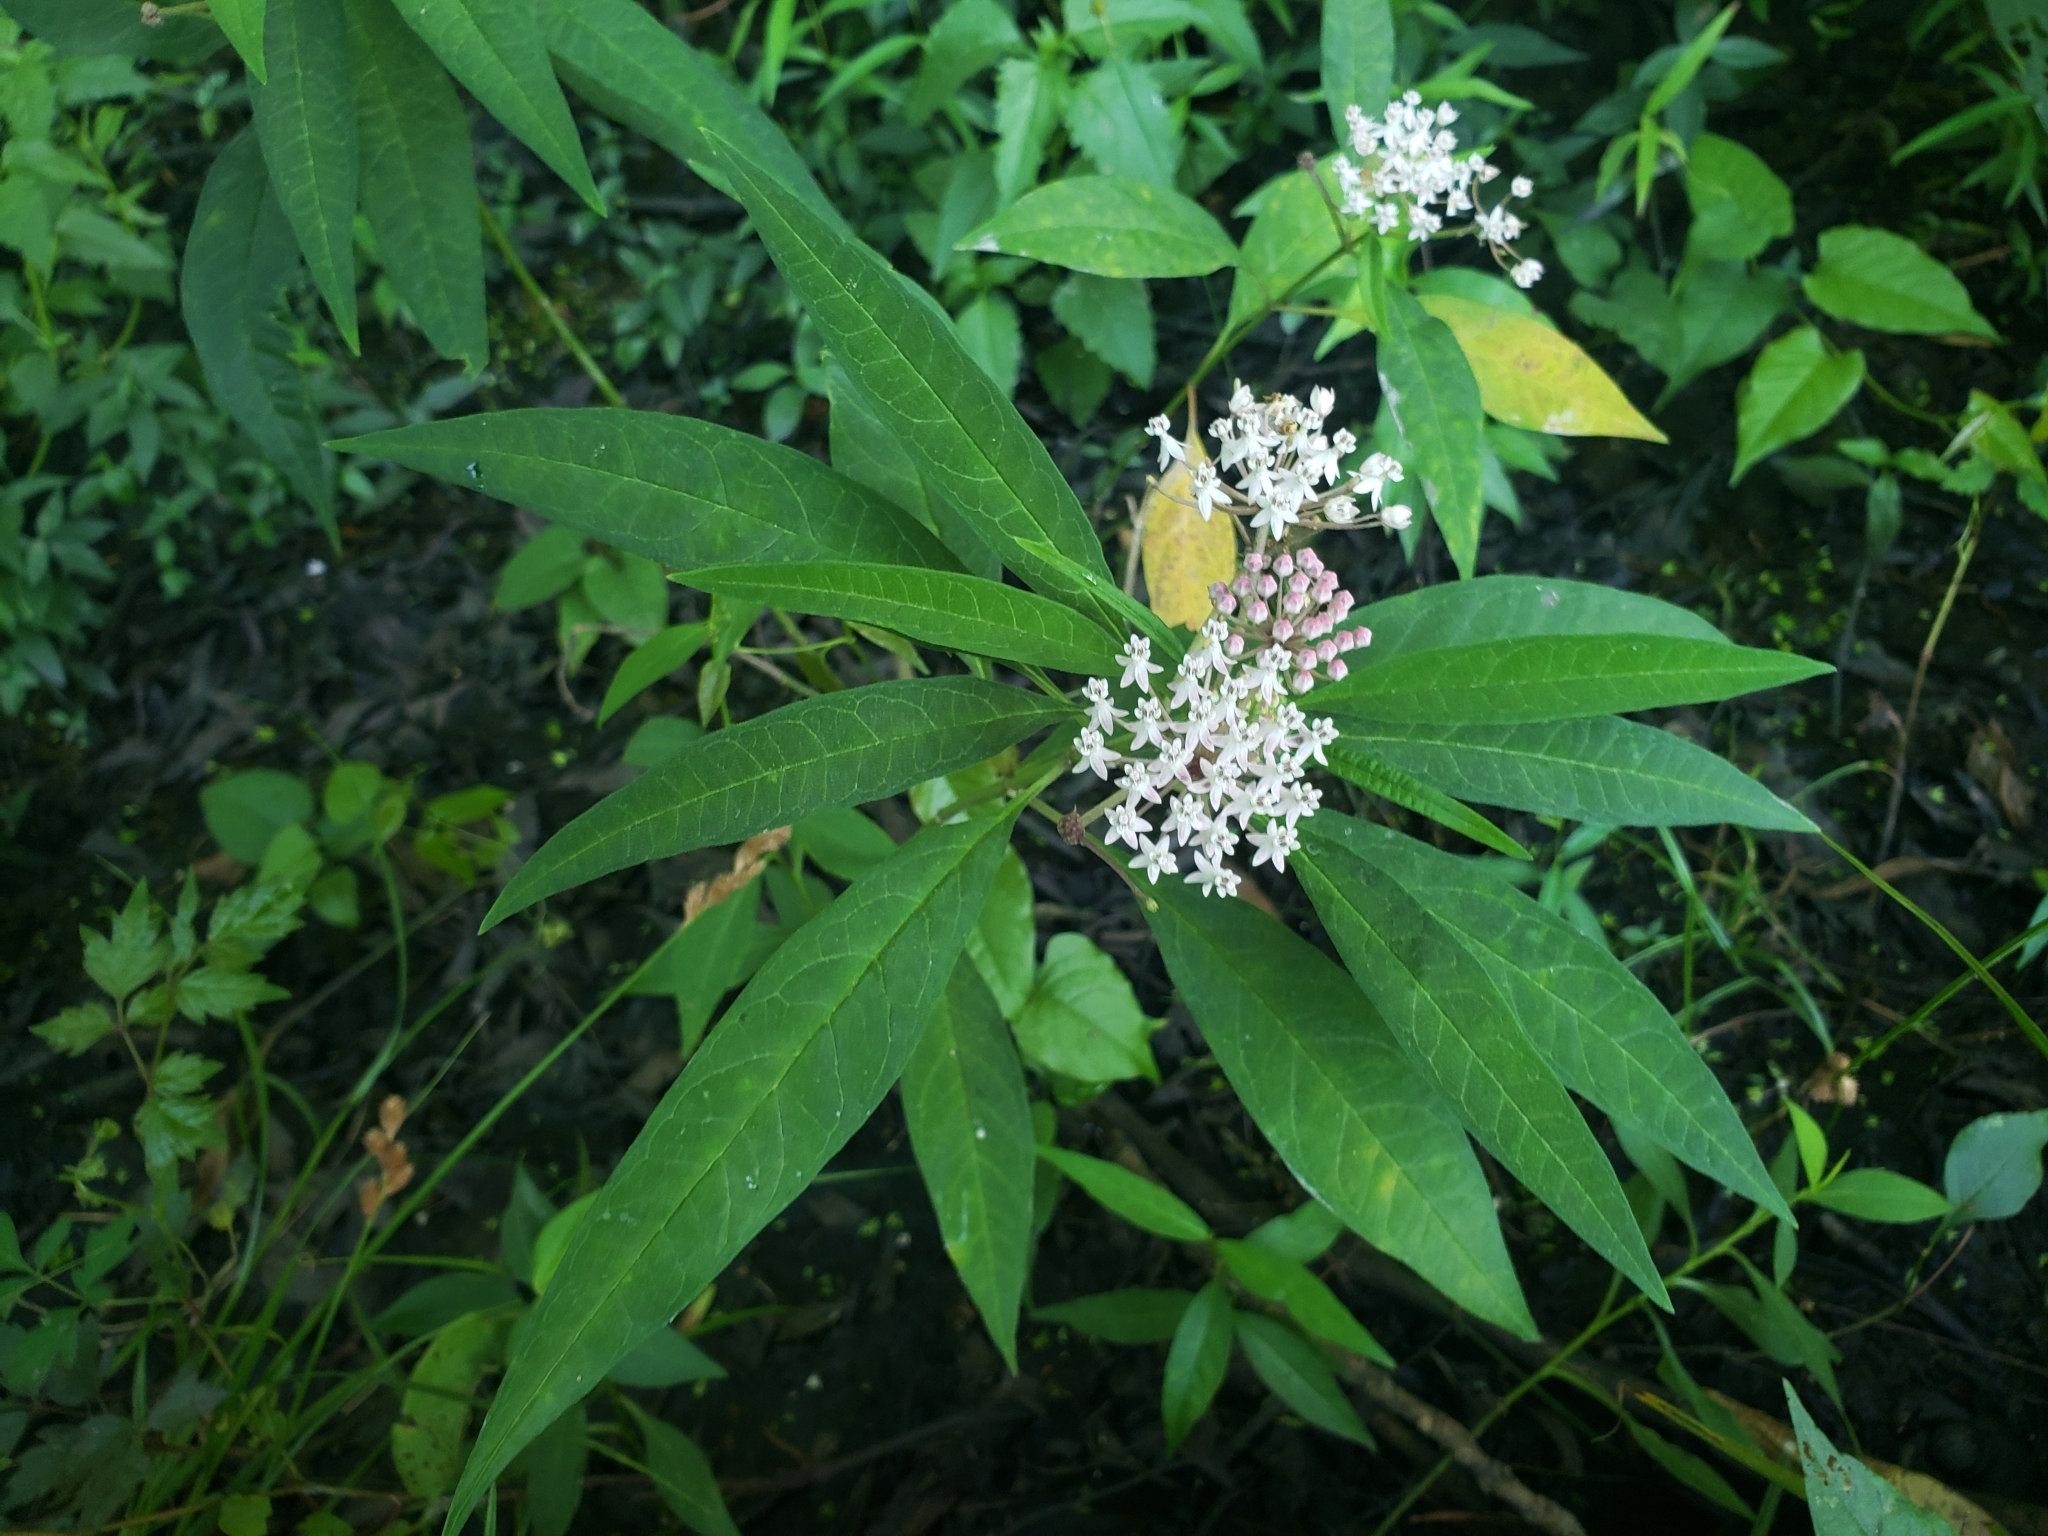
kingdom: Plantae
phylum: Tracheophyta
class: Magnoliopsida
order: Gentianales
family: Apocynaceae
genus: Asclepias
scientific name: Asclepias perennis
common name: Smooth-seed milkweed
